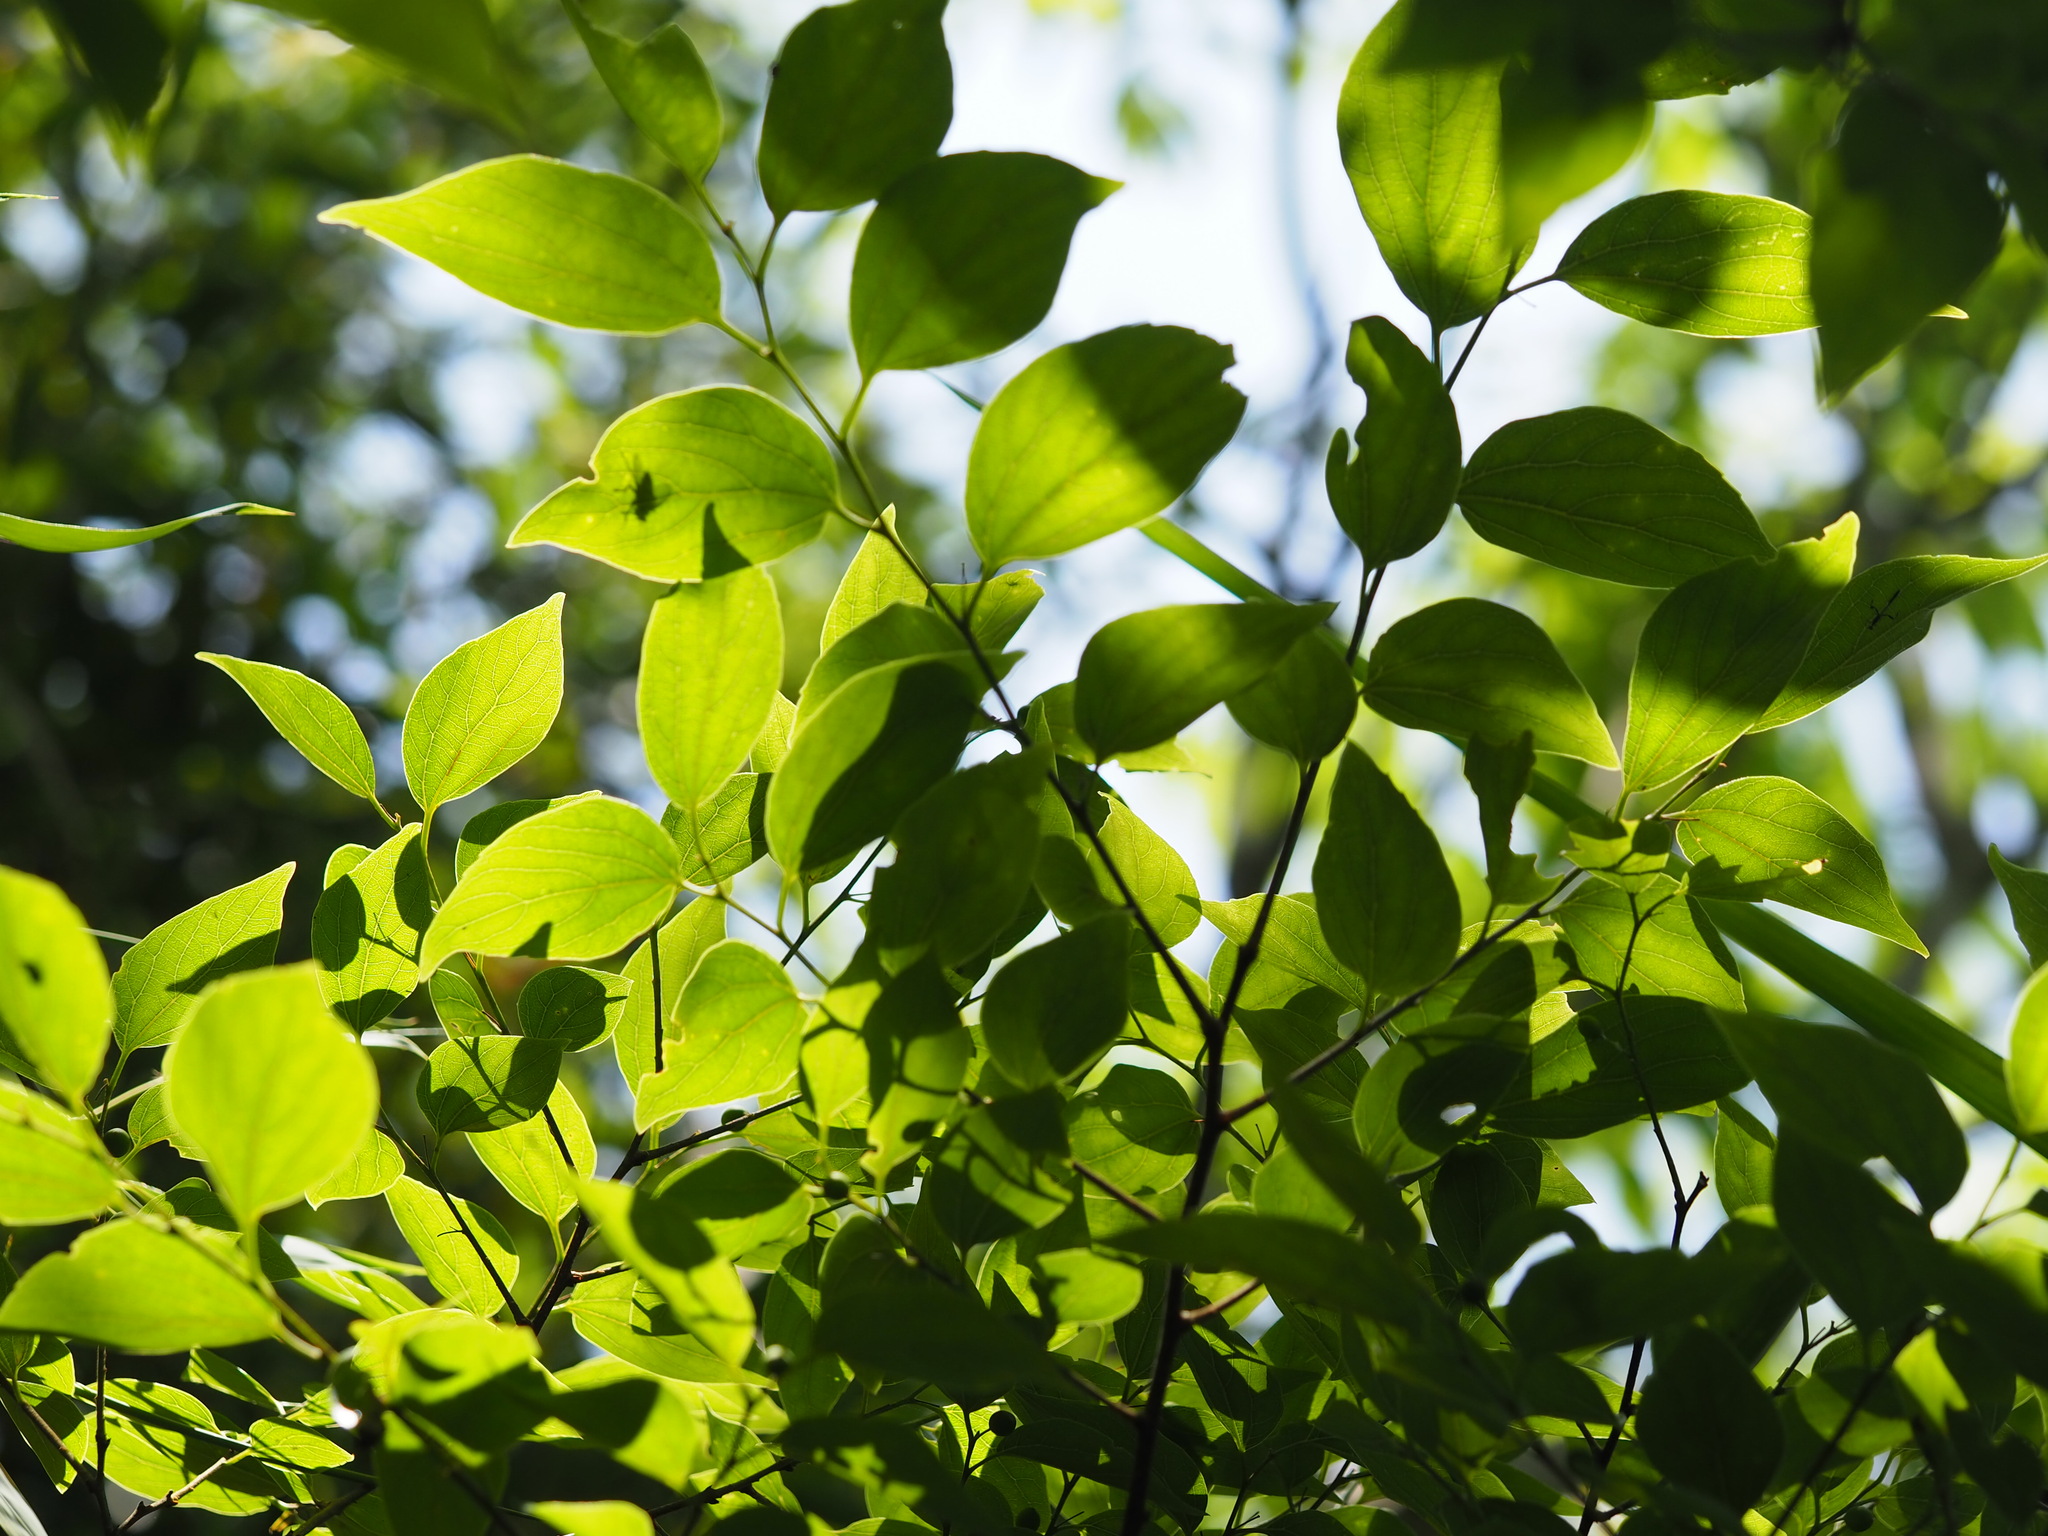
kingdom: Plantae
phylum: Tracheophyta
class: Magnoliopsida
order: Rosales
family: Cannabaceae
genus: Celtis
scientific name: Celtis sinensis
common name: Chinese hackberry
